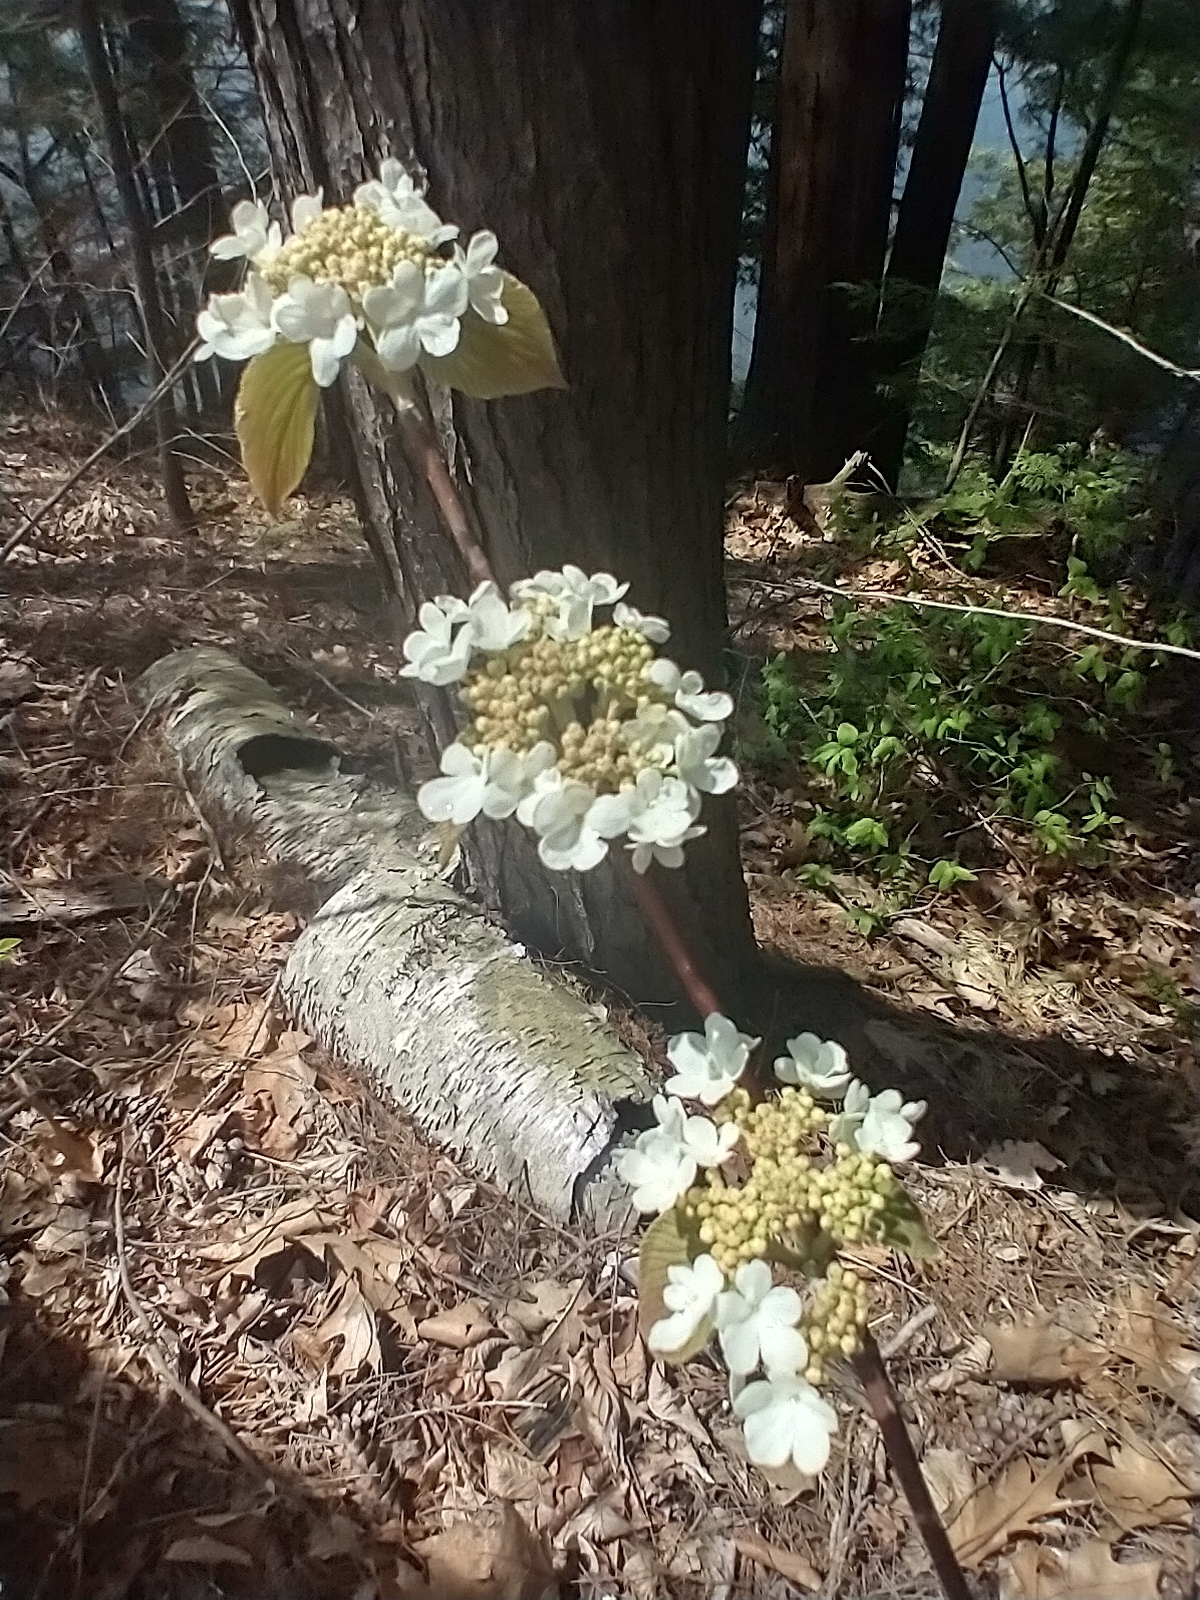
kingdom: Plantae
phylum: Tracheophyta
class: Magnoliopsida
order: Dipsacales
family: Viburnaceae
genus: Viburnum
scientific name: Viburnum lantanoides
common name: Hobblebush
